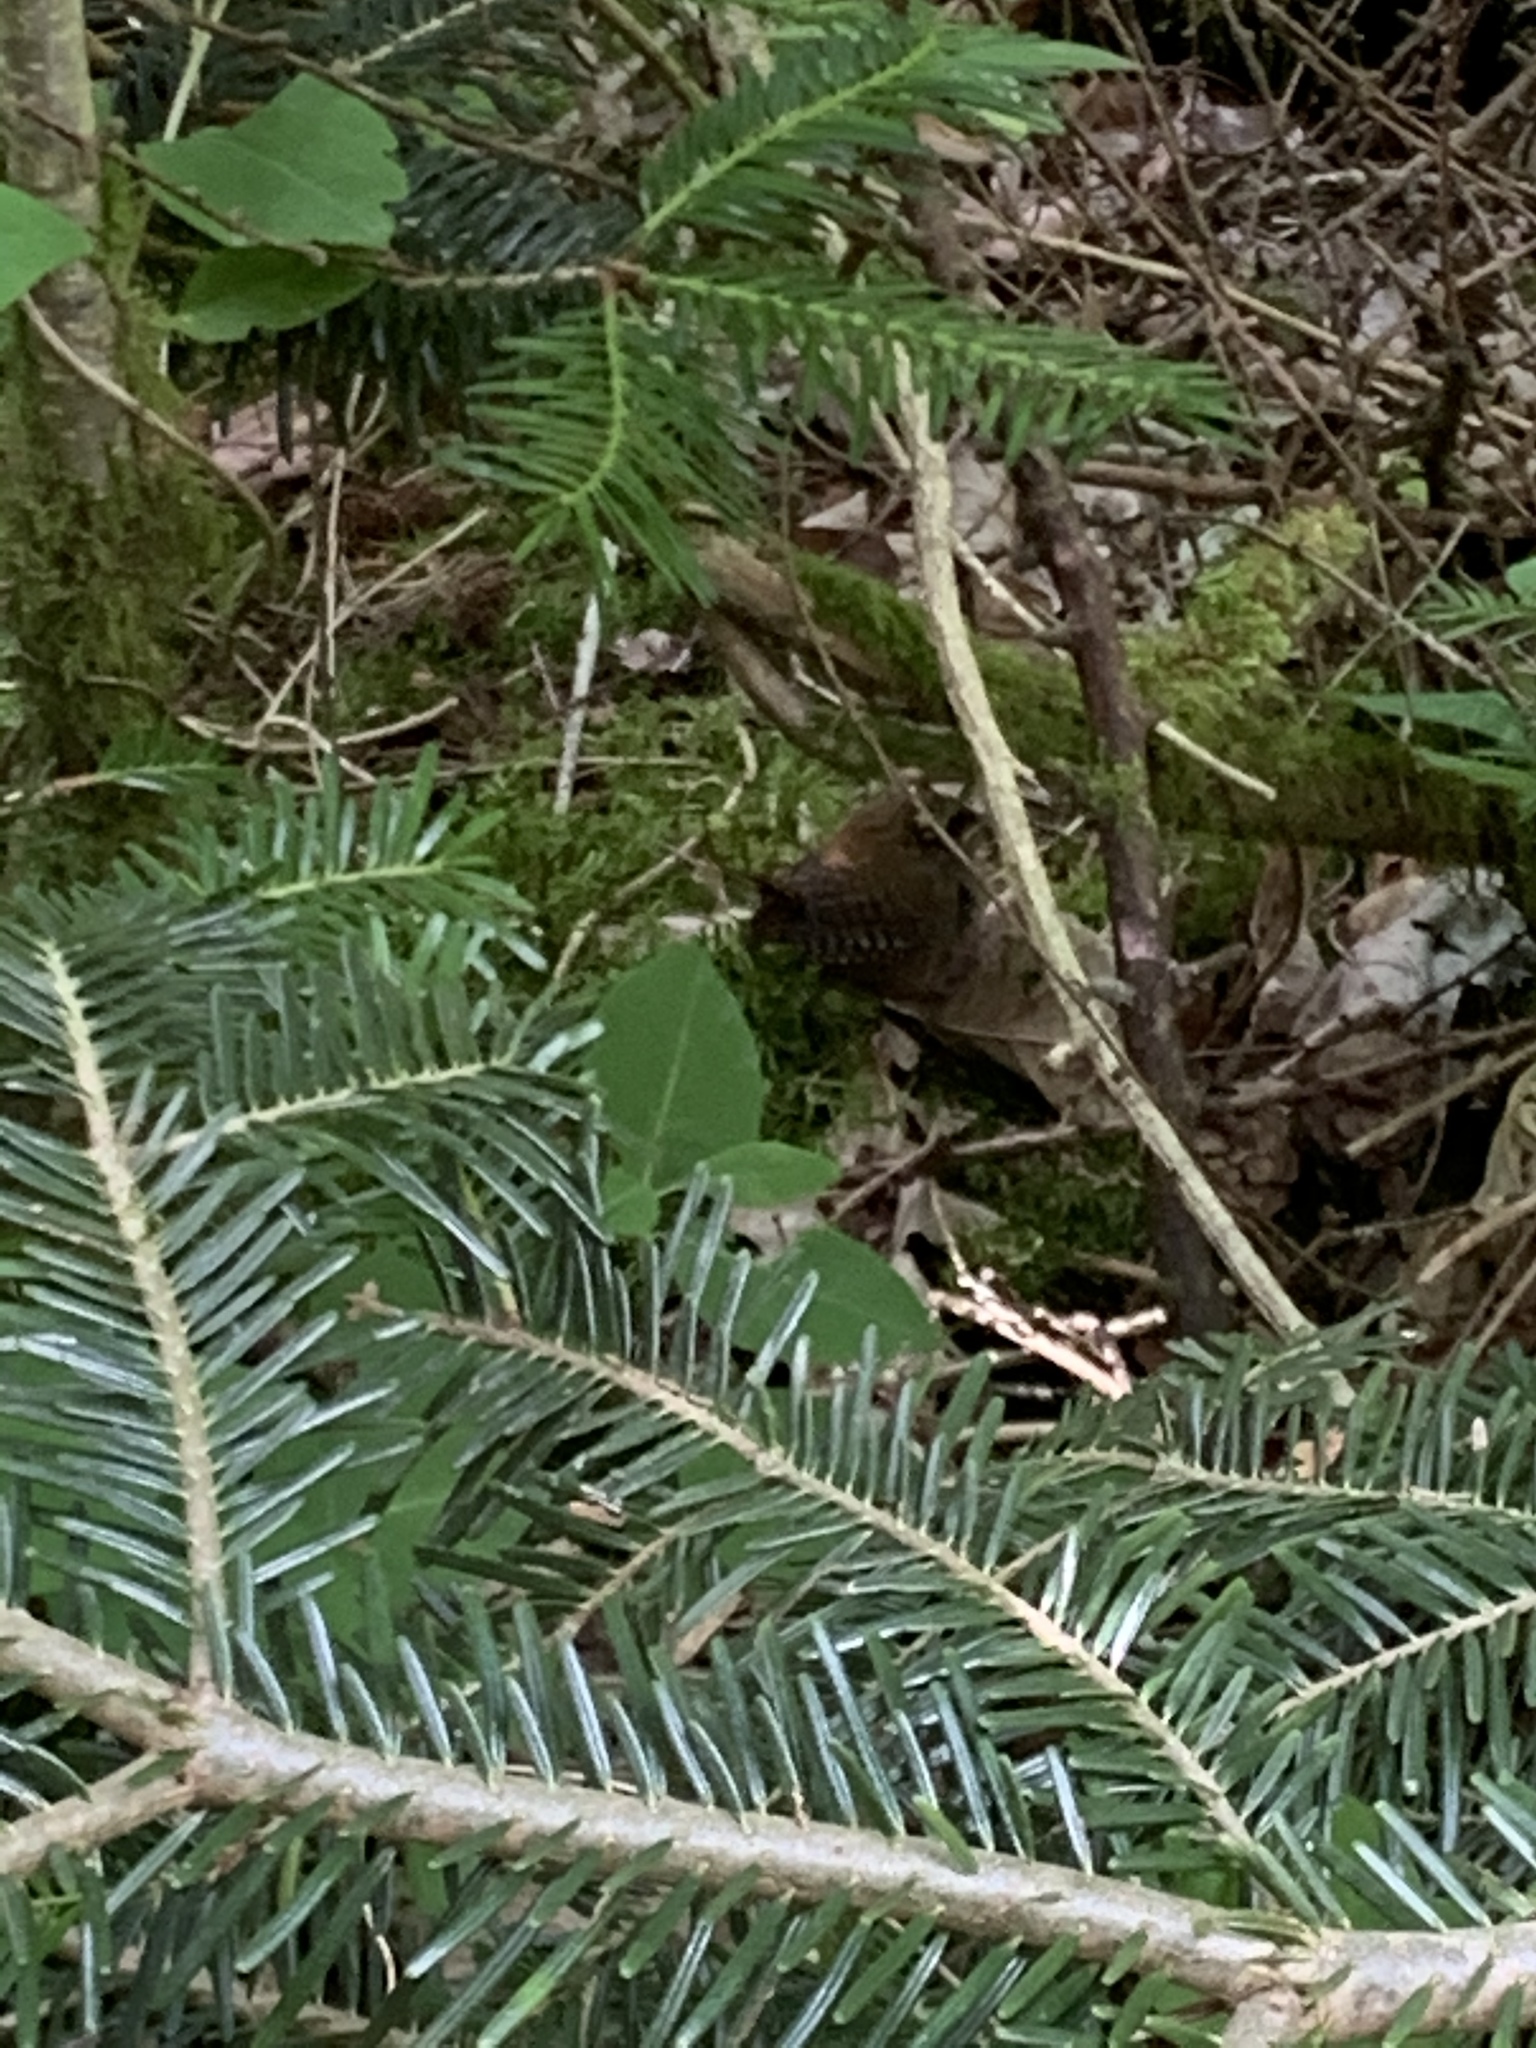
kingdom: Animalia
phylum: Chordata
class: Aves
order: Passeriformes
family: Troglodytidae
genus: Troglodytes
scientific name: Troglodytes troglodytes
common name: Eurasian wren
